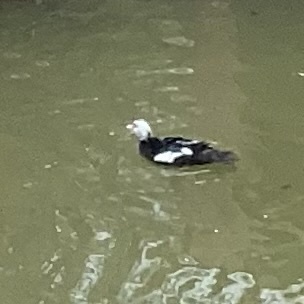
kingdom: Animalia
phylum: Chordata
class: Aves
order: Anseriformes
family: Anatidae
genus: Cairina
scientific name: Cairina moschata
